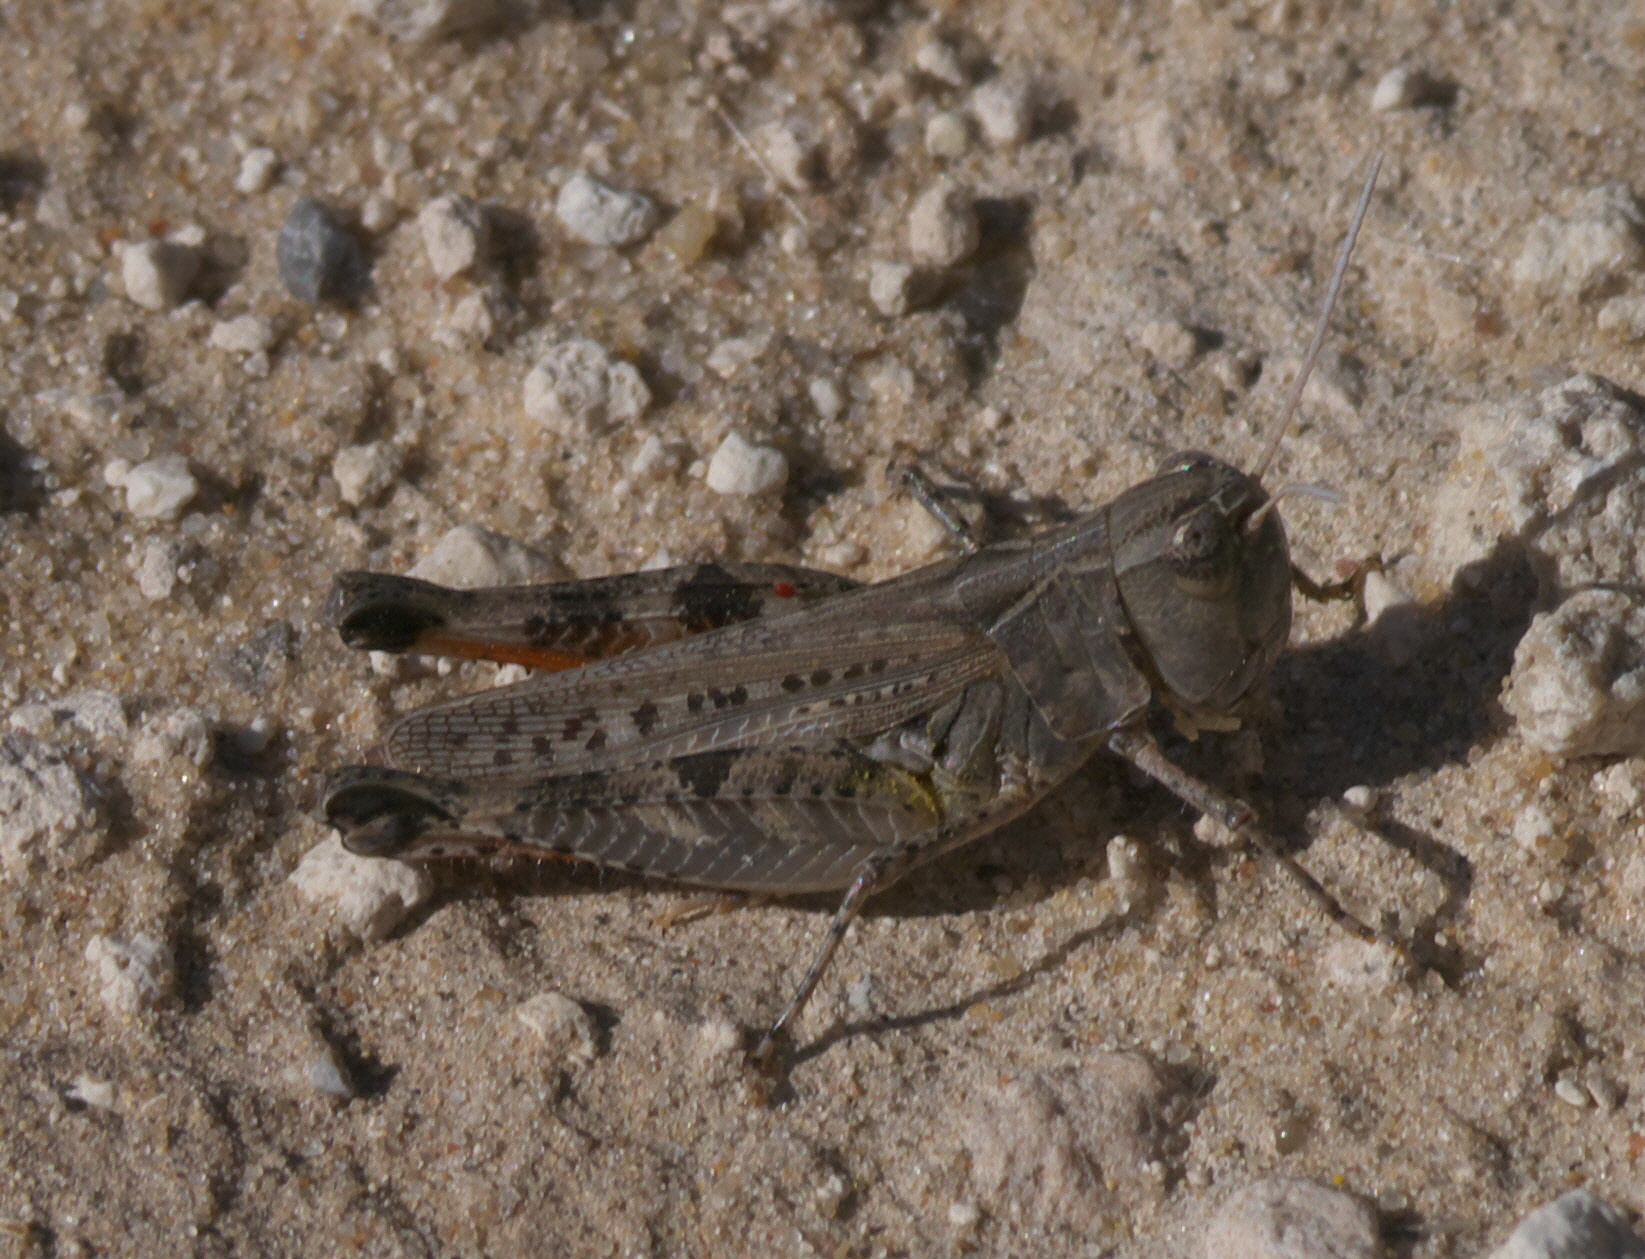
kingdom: Animalia
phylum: Arthropoda
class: Insecta
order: Orthoptera
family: Acrididae
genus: Ageneotettix
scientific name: Ageneotettix deorum
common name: White-whiskered grasshopper
